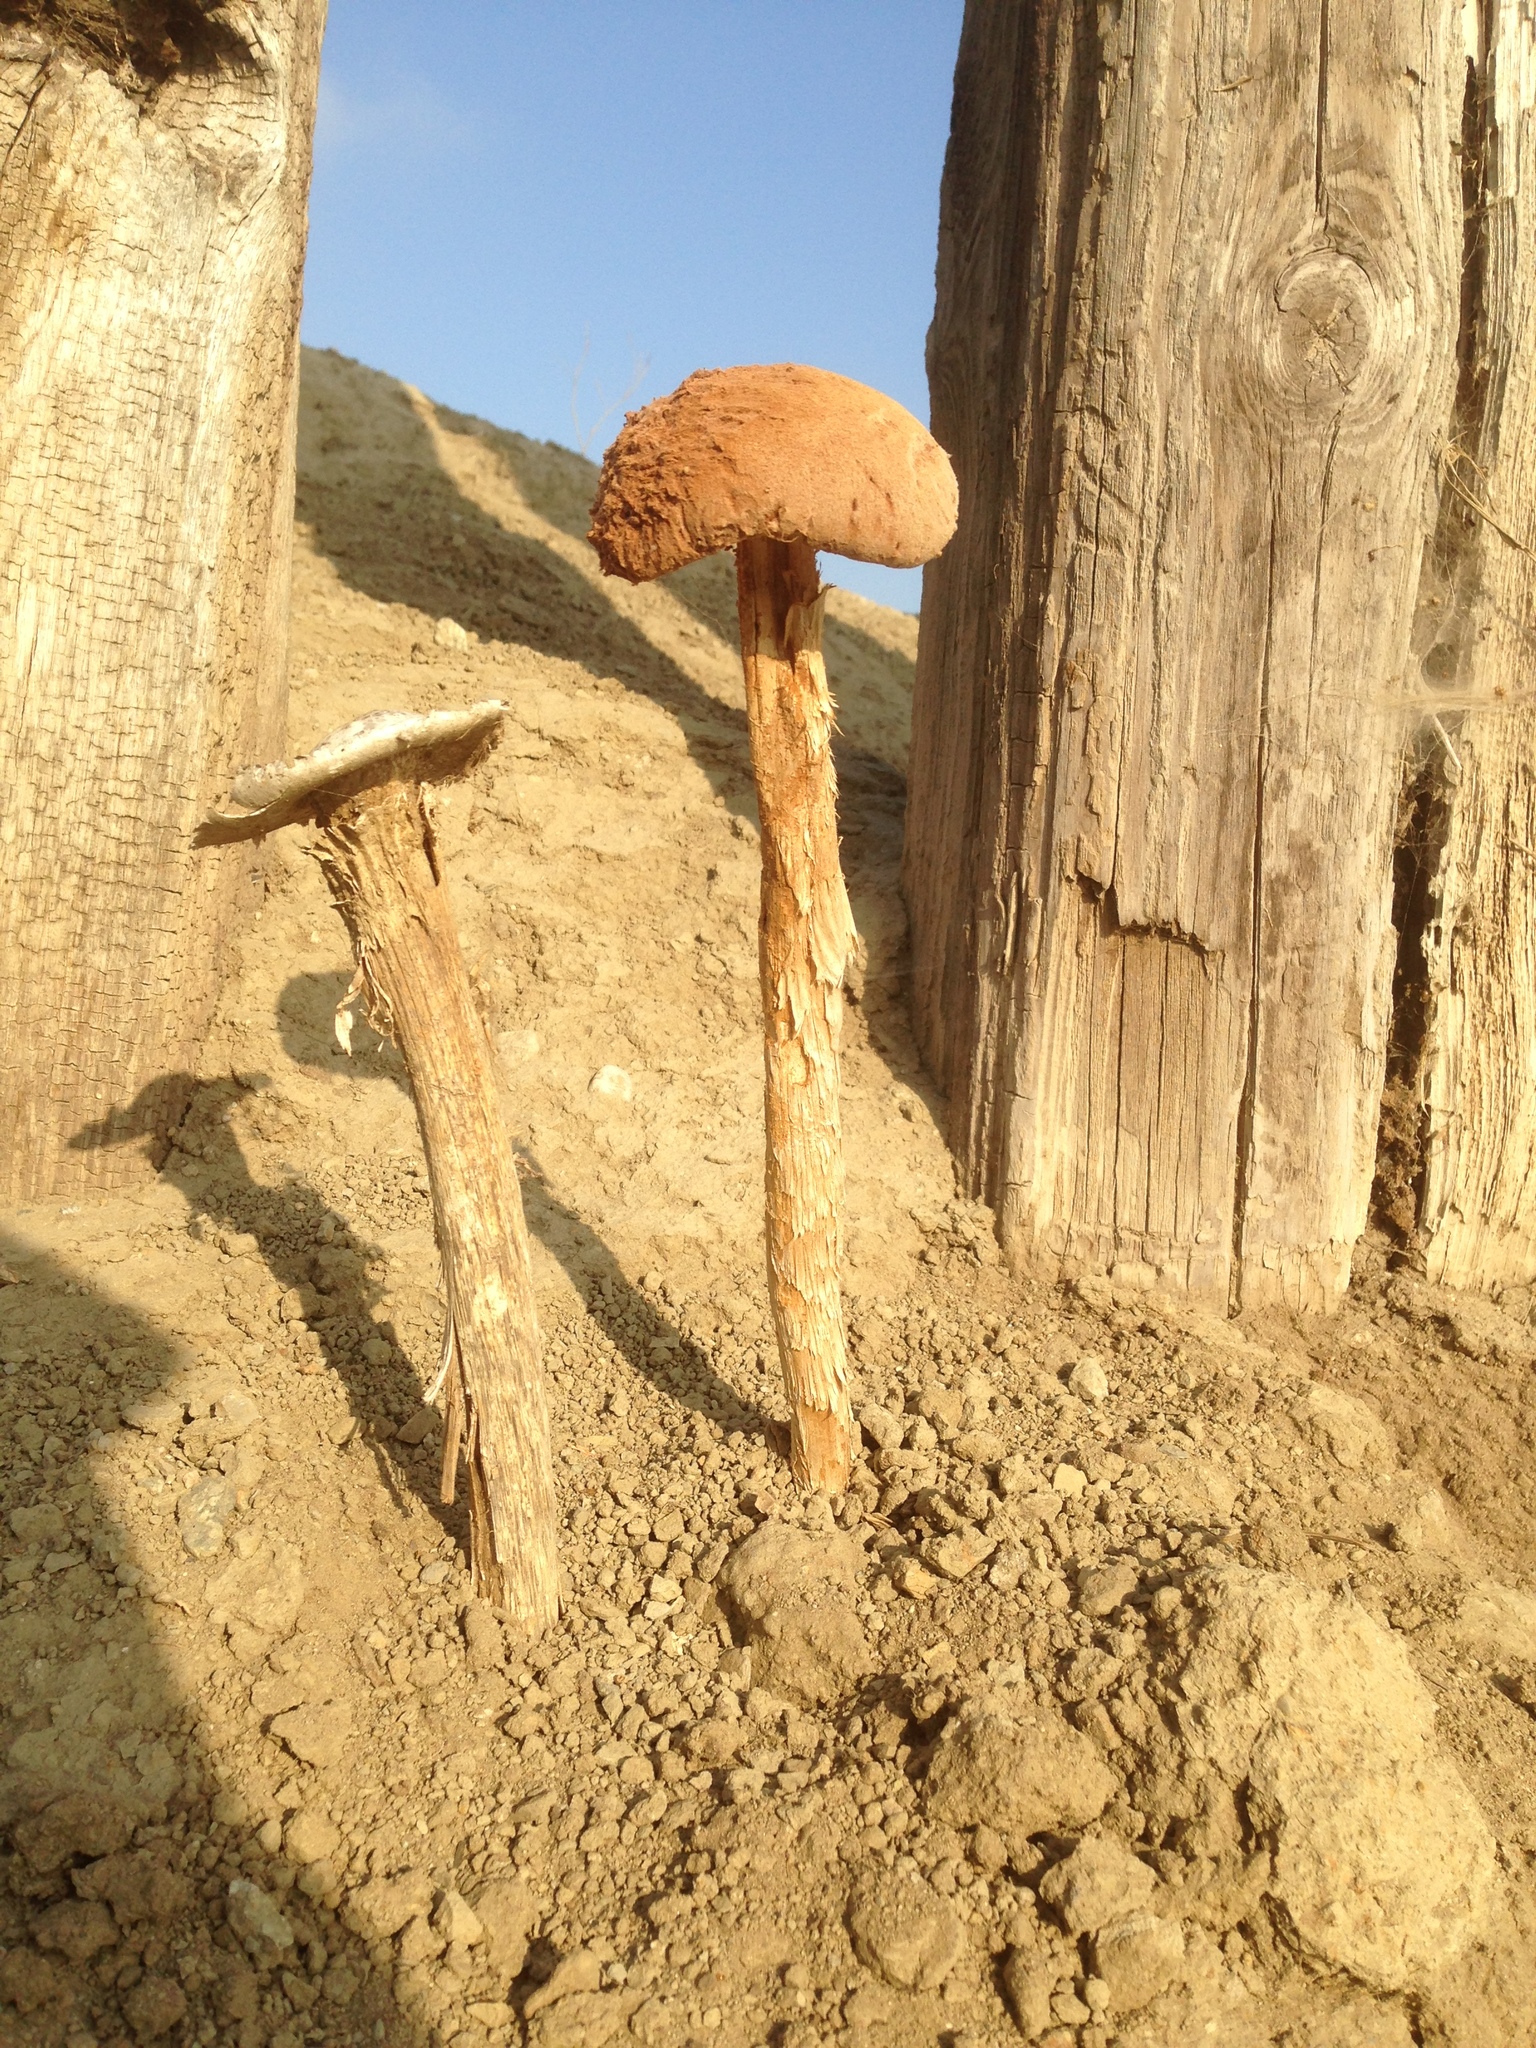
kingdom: Fungi
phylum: Basidiomycota
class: Agaricomycetes
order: Agaricales
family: Agaricaceae
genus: Battarrea
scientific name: Battarrea phalloides
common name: Sandy stiltball
